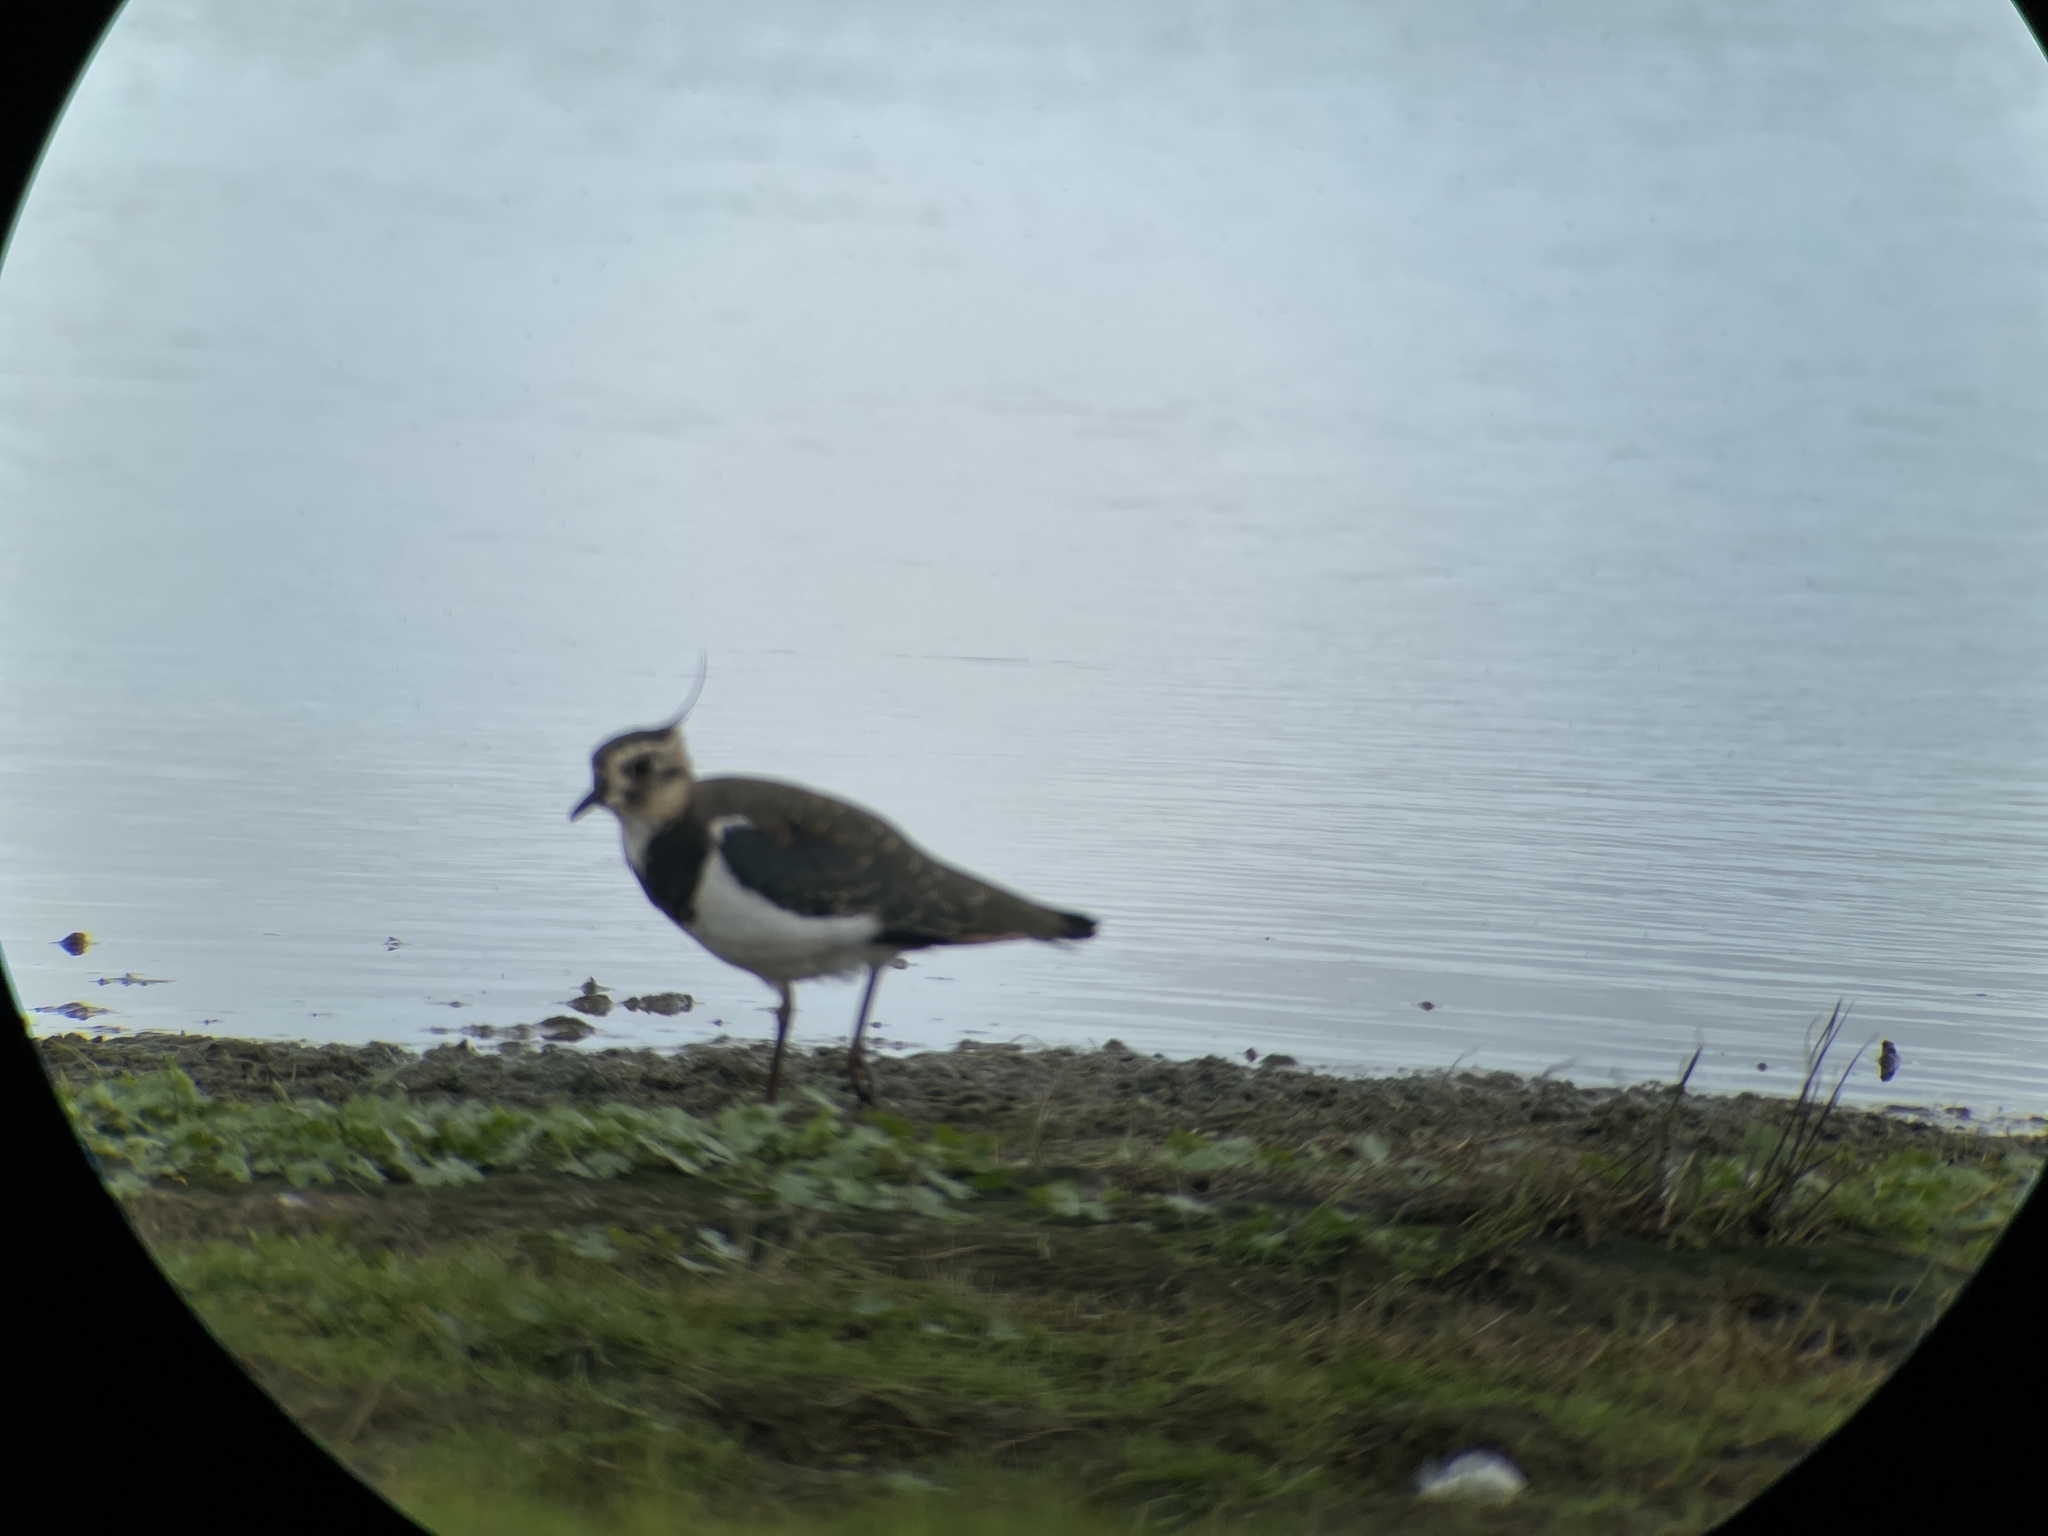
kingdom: Animalia
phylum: Chordata
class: Aves
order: Charadriiformes
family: Charadriidae
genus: Vanellus
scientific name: Vanellus vanellus
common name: Northern lapwing
